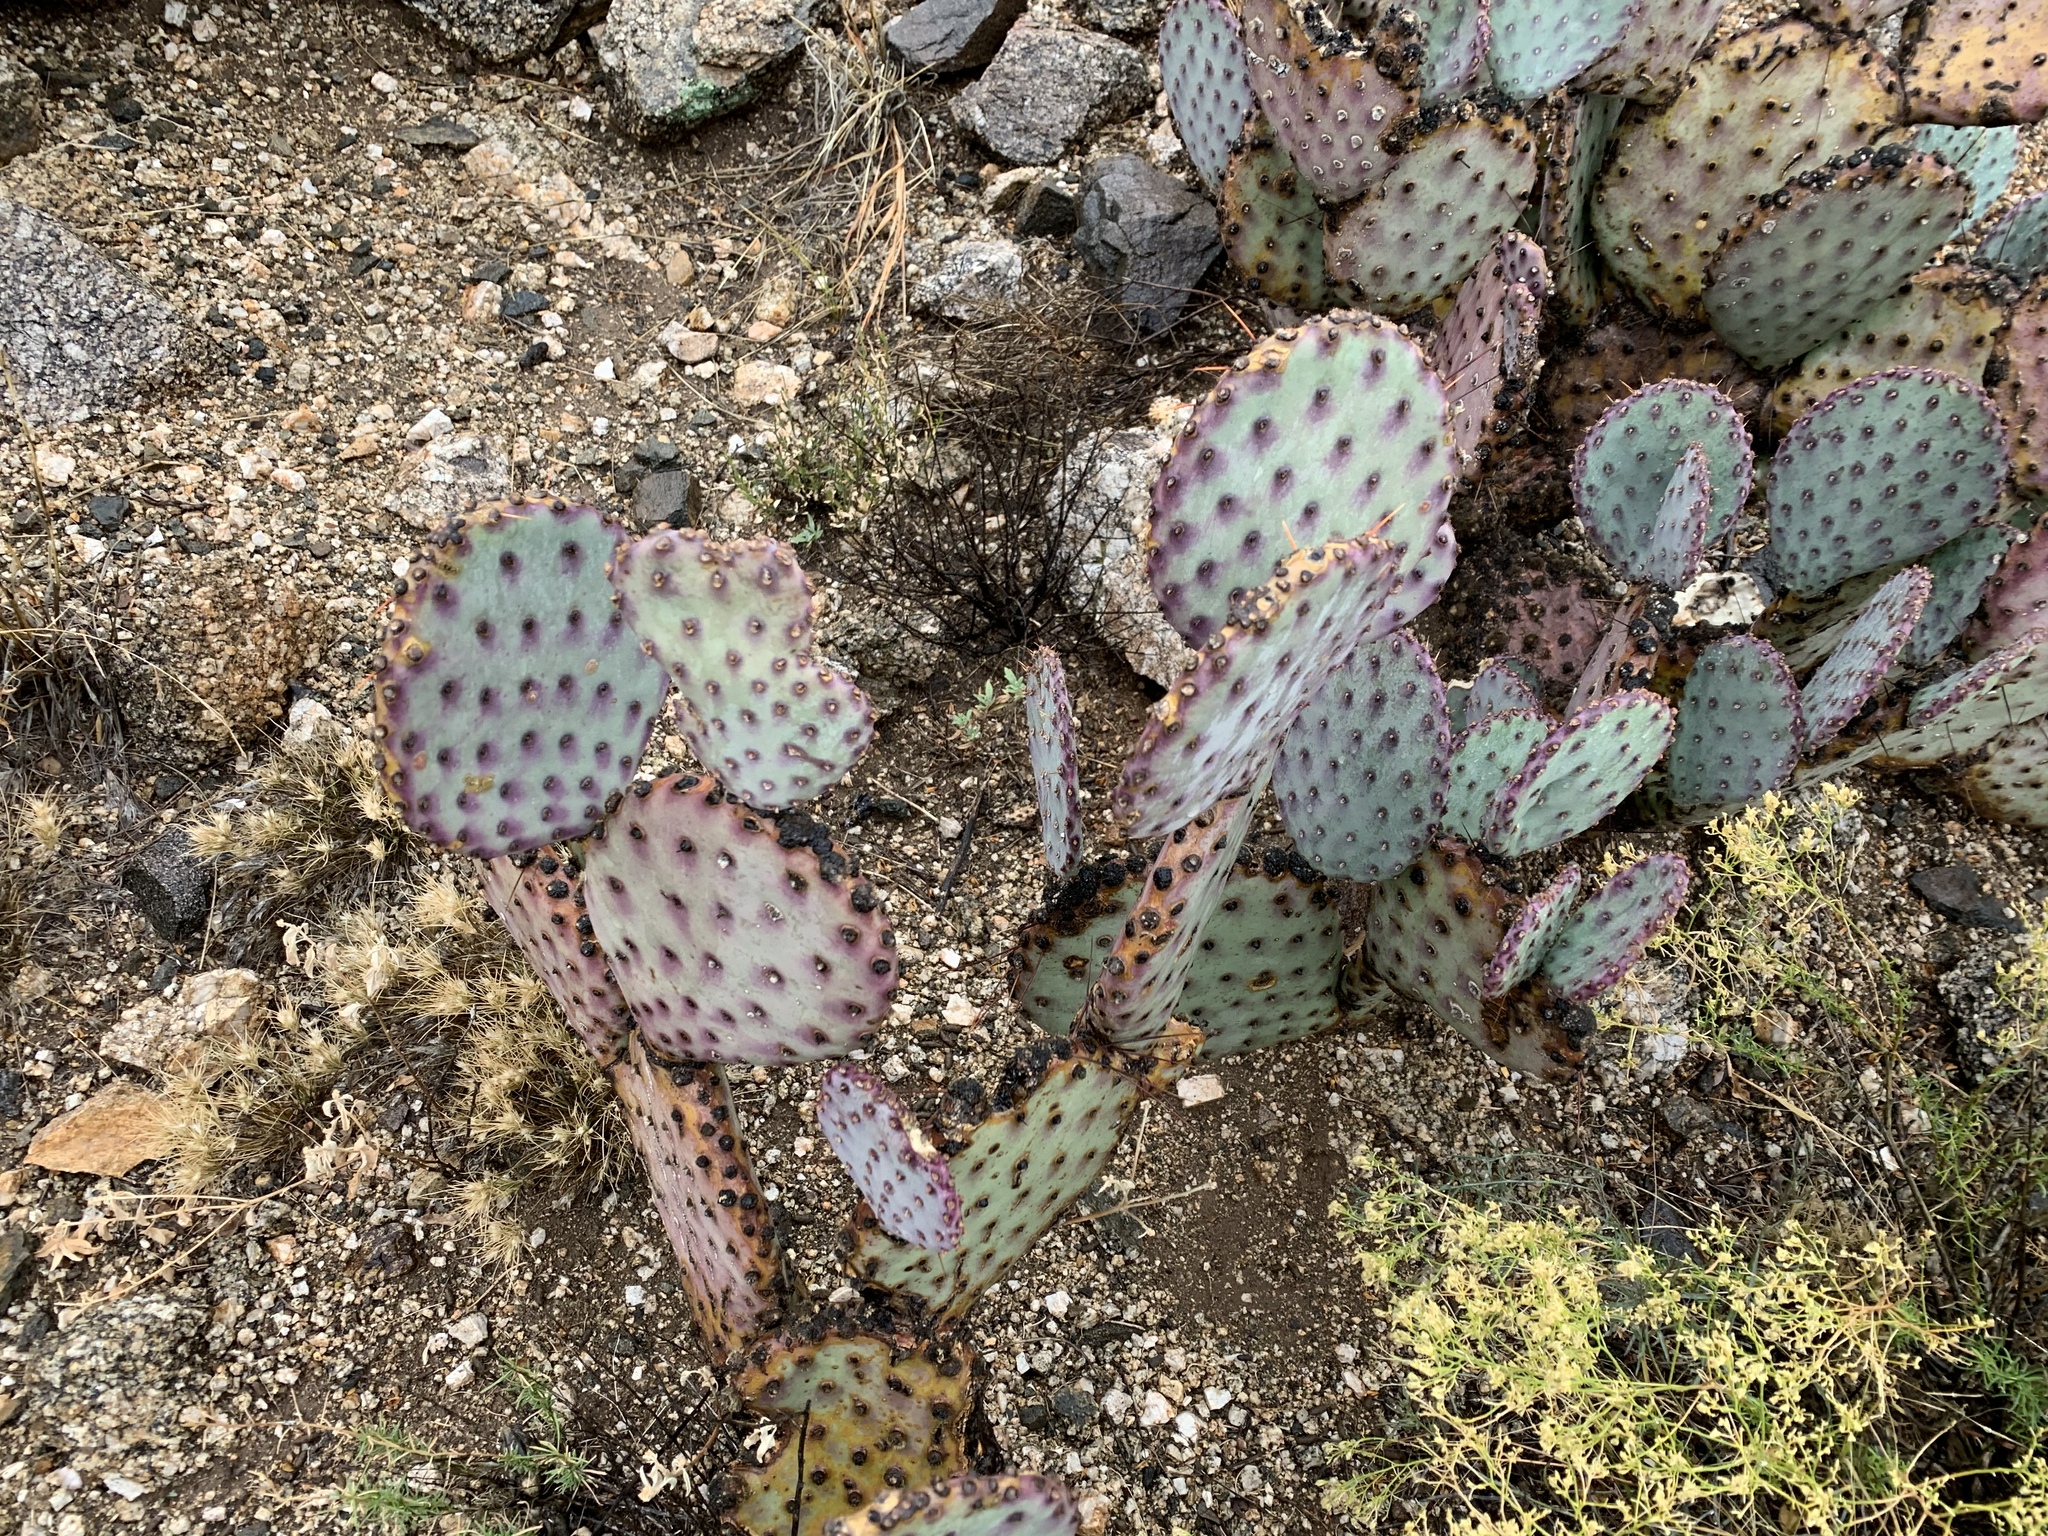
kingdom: Plantae
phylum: Tracheophyta
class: Magnoliopsida
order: Caryophyllales
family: Cactaceae
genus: Opuntia
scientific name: Opuntia macrocentra
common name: Purple prickly-pear
